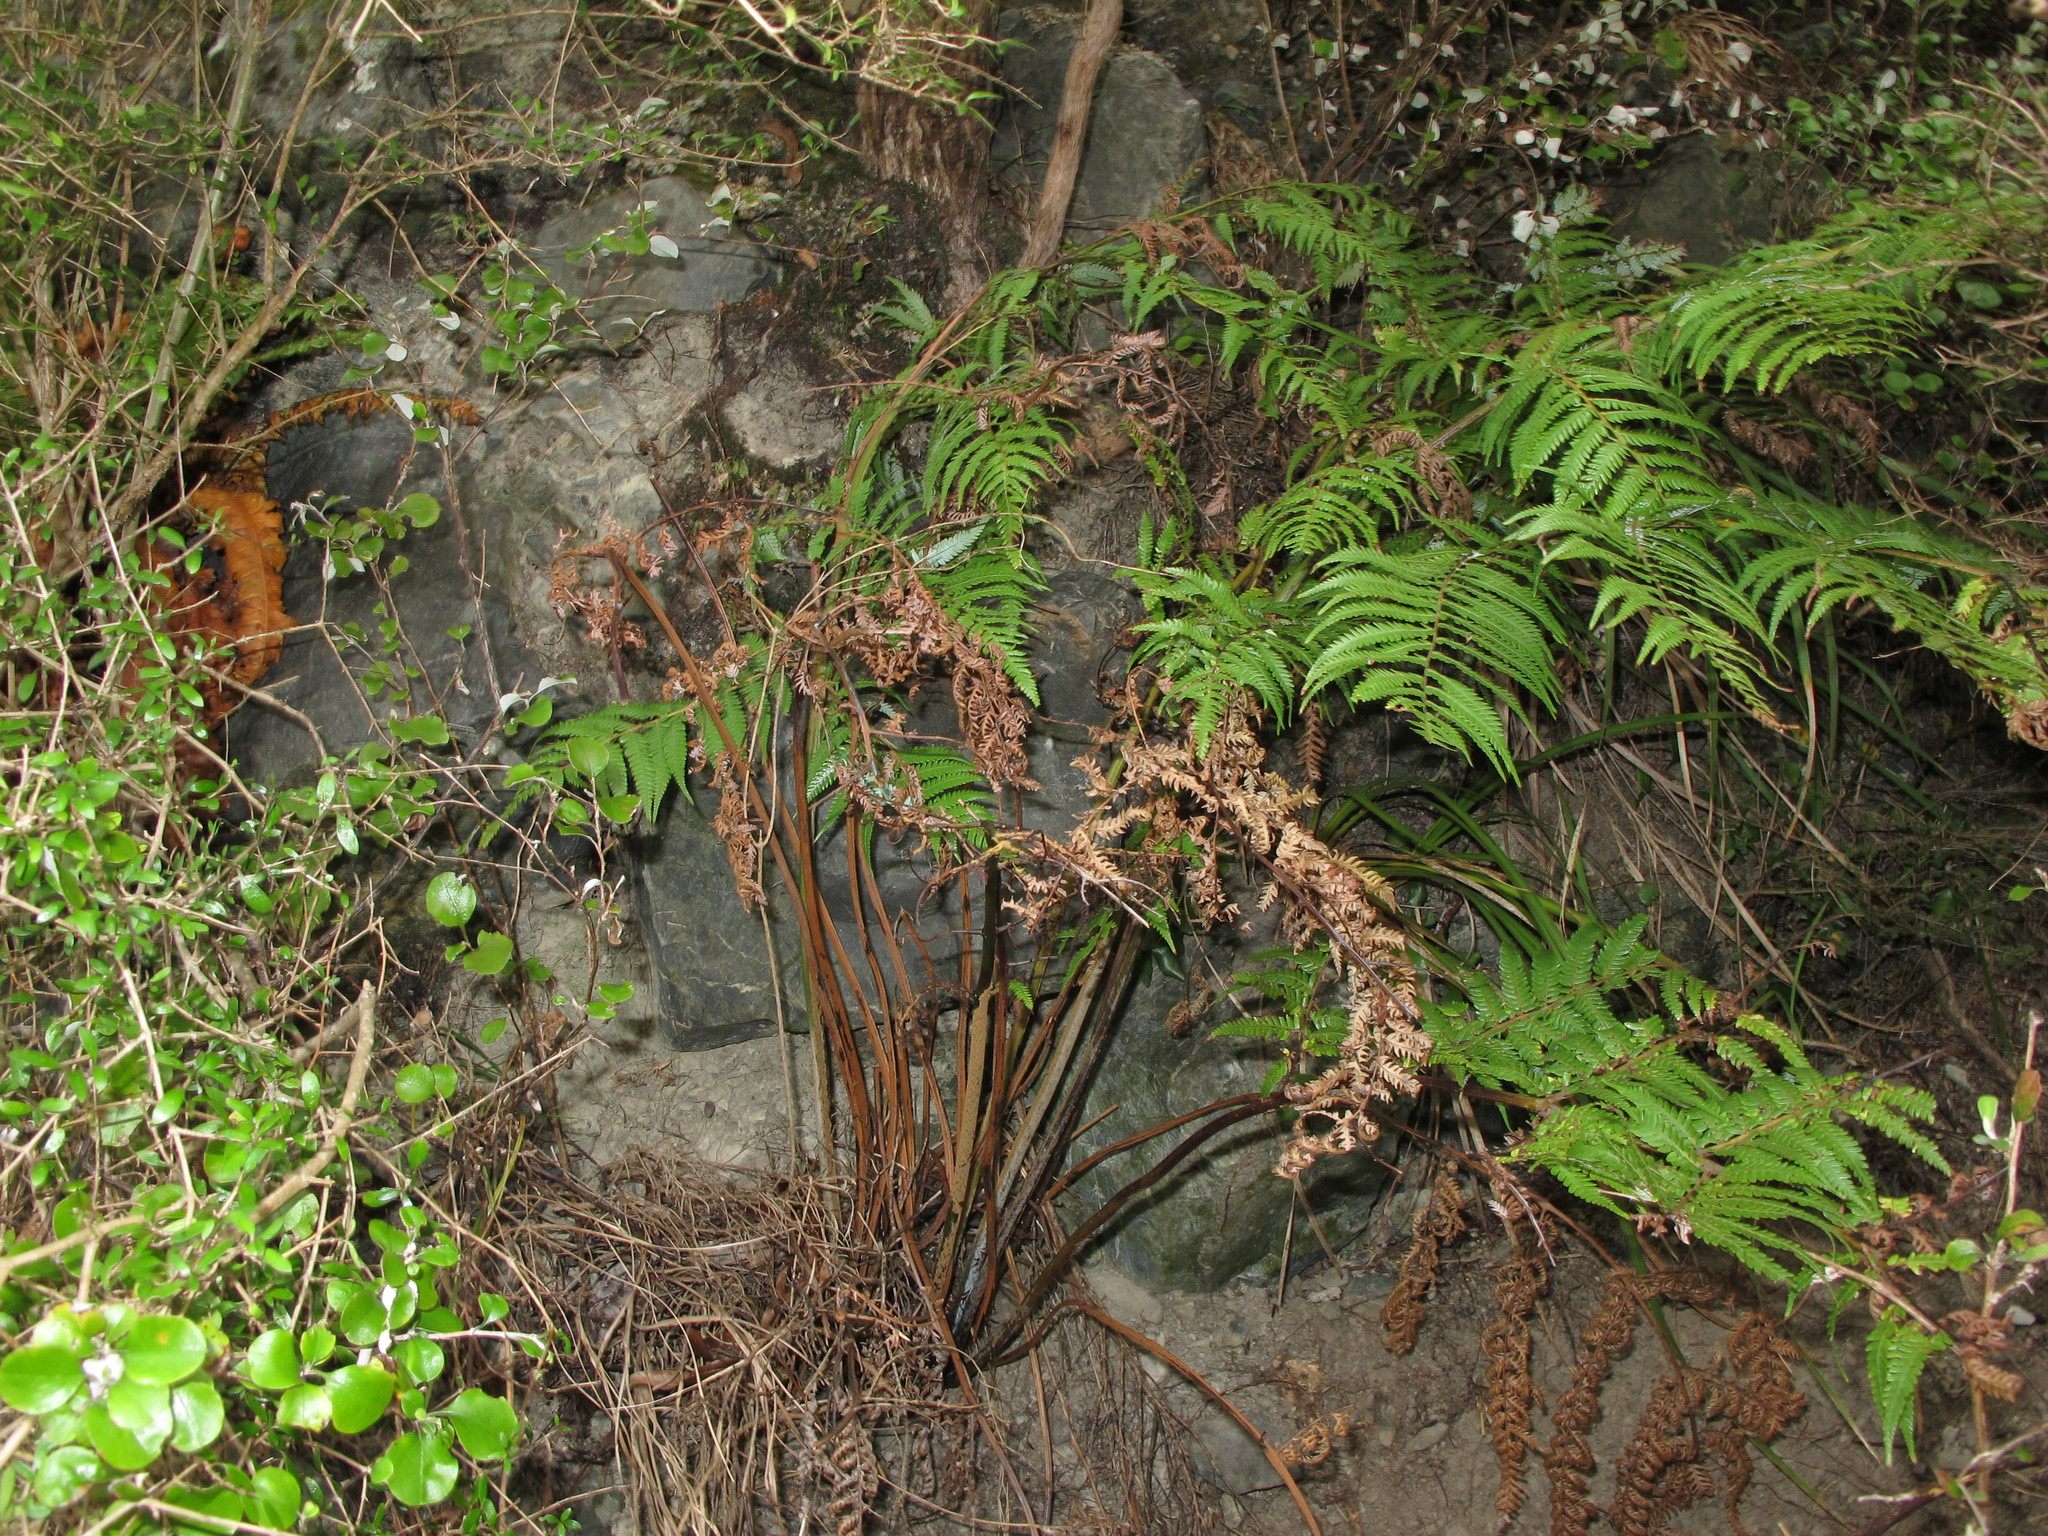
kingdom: Plantae
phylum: Tracheophyta
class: Polypodiopsida
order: Cyatheales
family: Cyatheaceae
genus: Alsophila
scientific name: Alsophila dealbata
